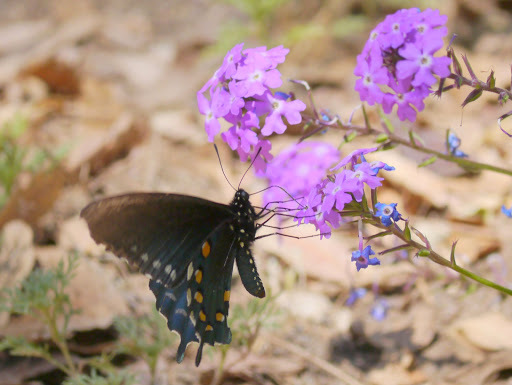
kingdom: Animalia
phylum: Arthropoda
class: Insecta
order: Lepidoptera
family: Papilionidae
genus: Battus
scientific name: Battus philenor
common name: Pipevine swallowtail
